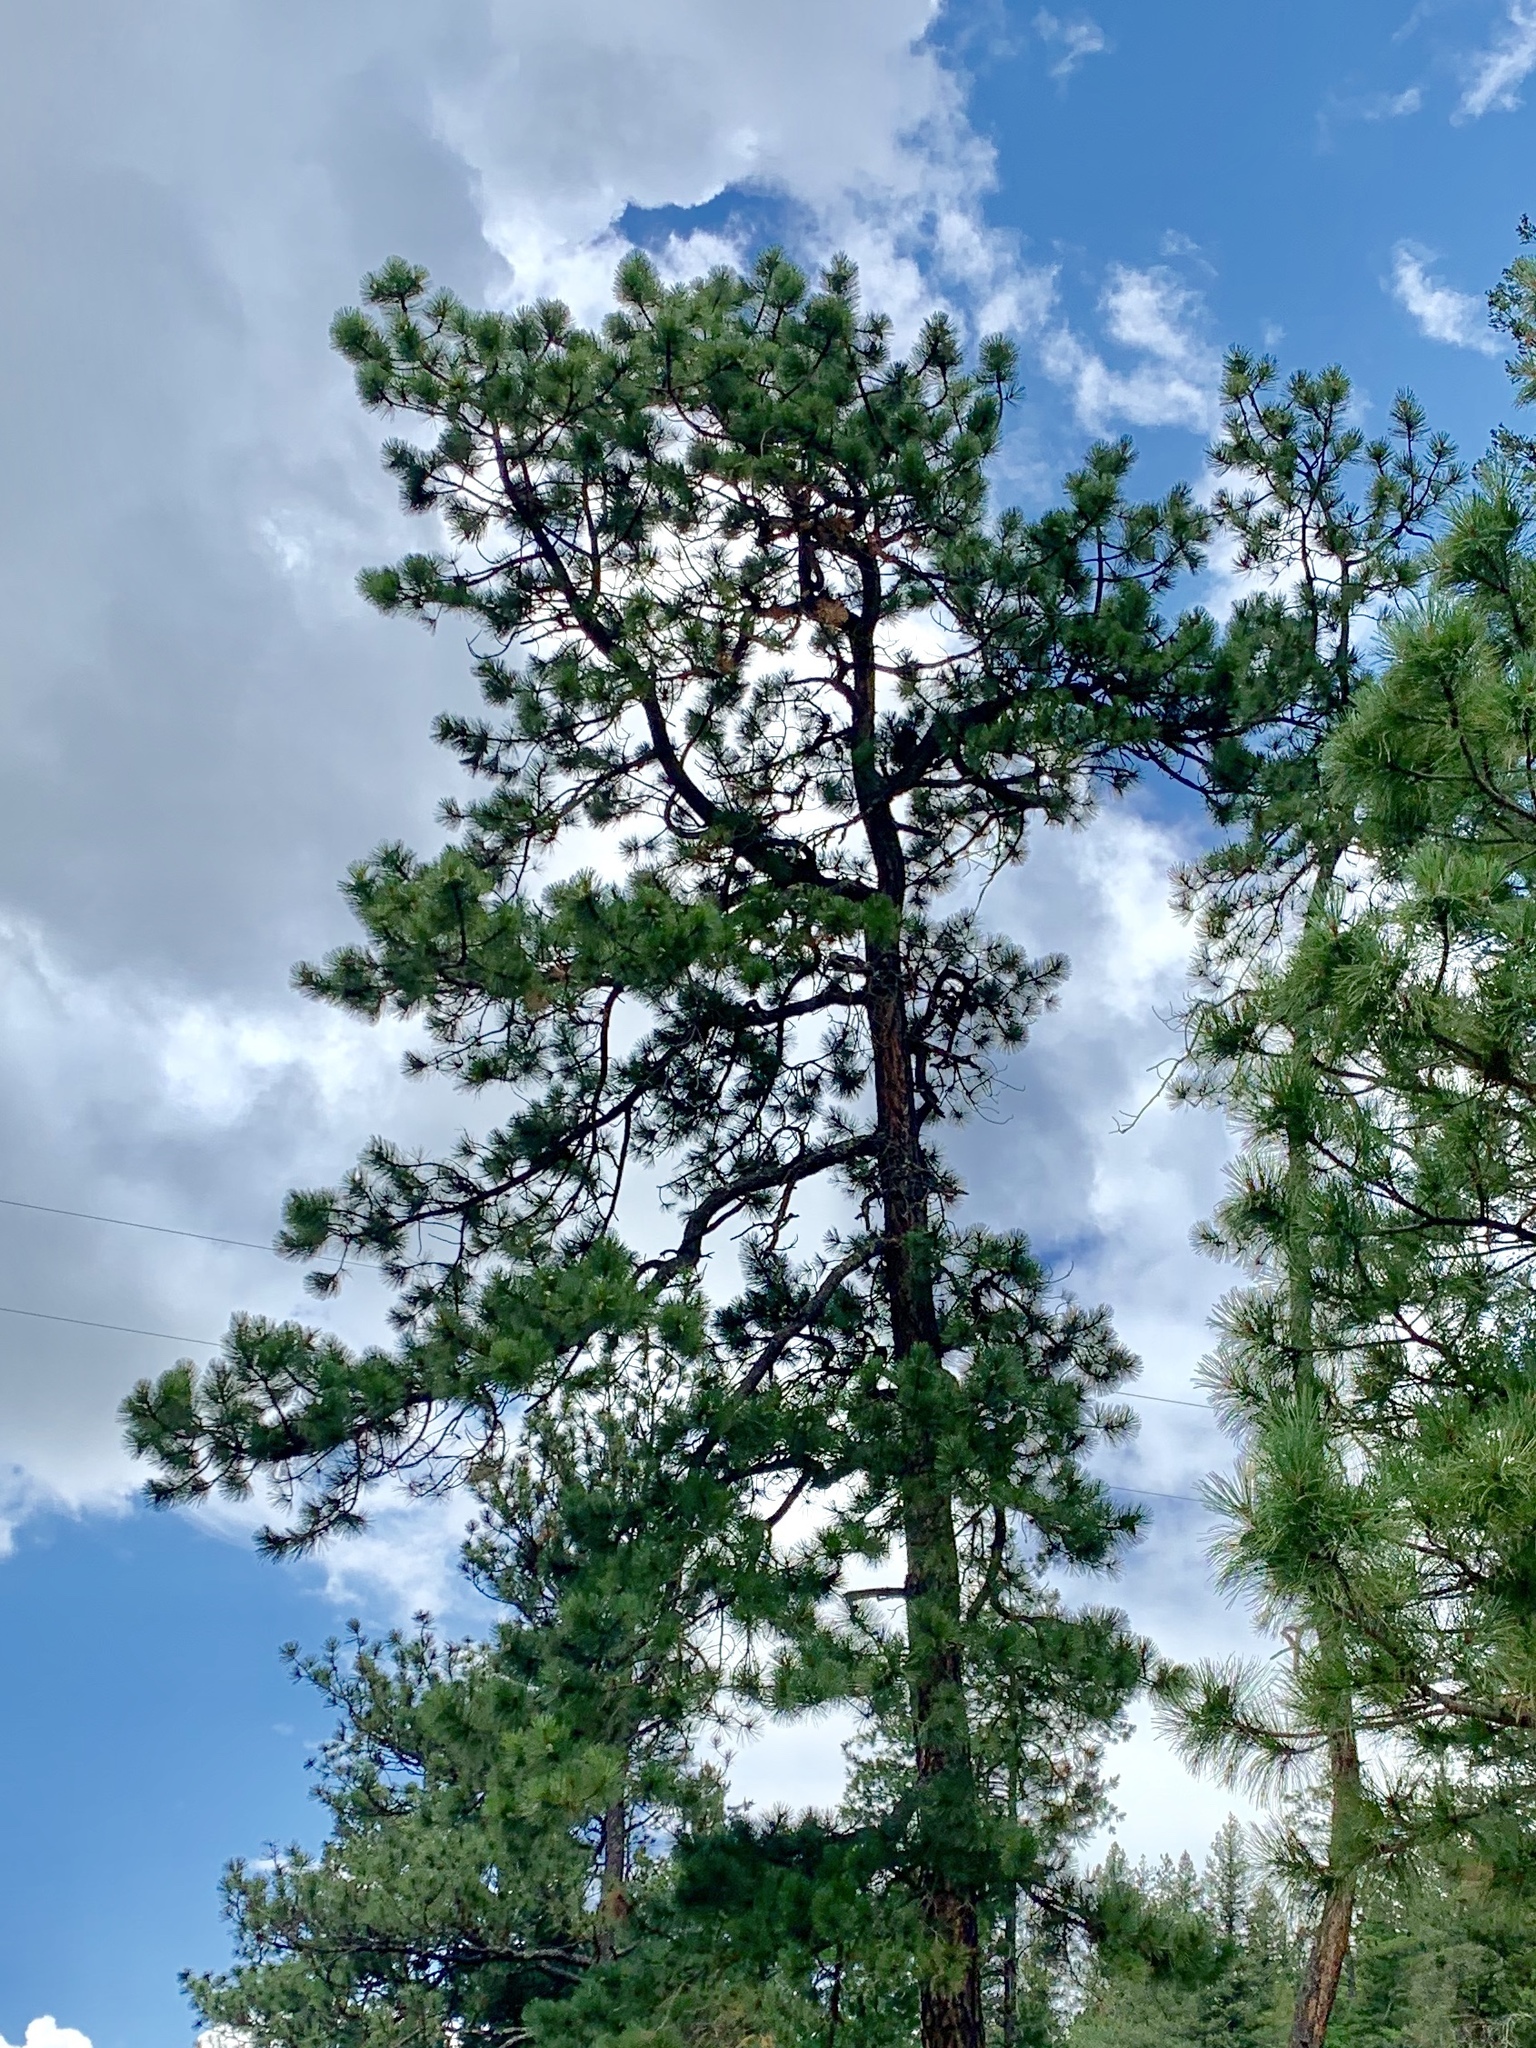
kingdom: Plantae
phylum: Tracheophyta
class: Pinopsida
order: Pinales
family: Pinaceae
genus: Pinus
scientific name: Pinus ponderosa
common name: Western yellow-pine
